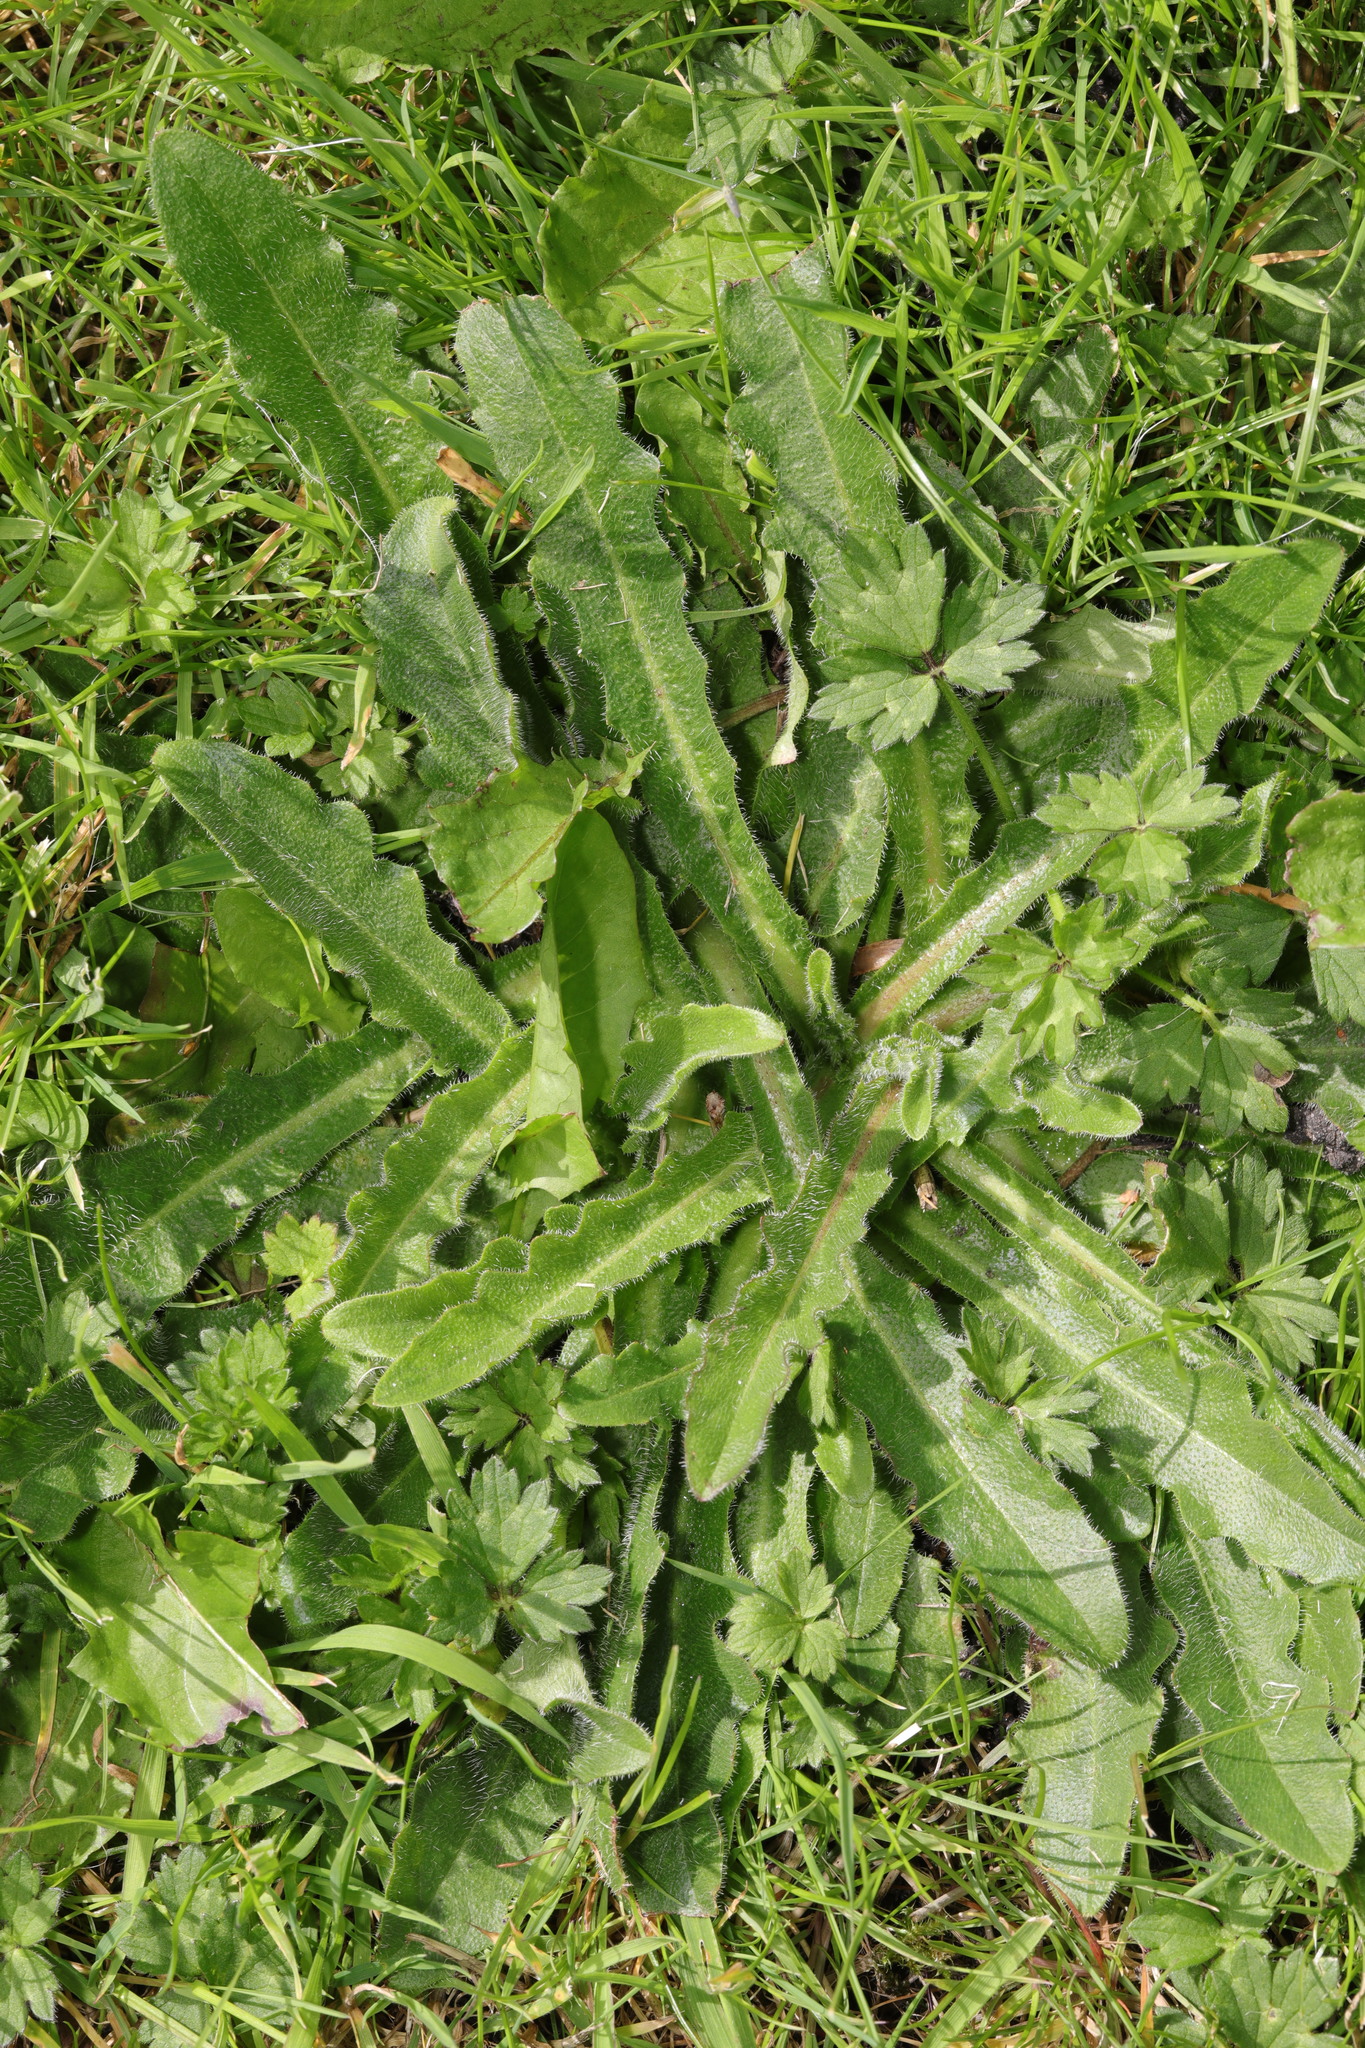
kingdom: Plantae
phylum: Tracheophyta
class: Magnoliopsida
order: Asterales
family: Asteraceae
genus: Hypochaeris
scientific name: Hypochaeris radicata
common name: Flatweed
